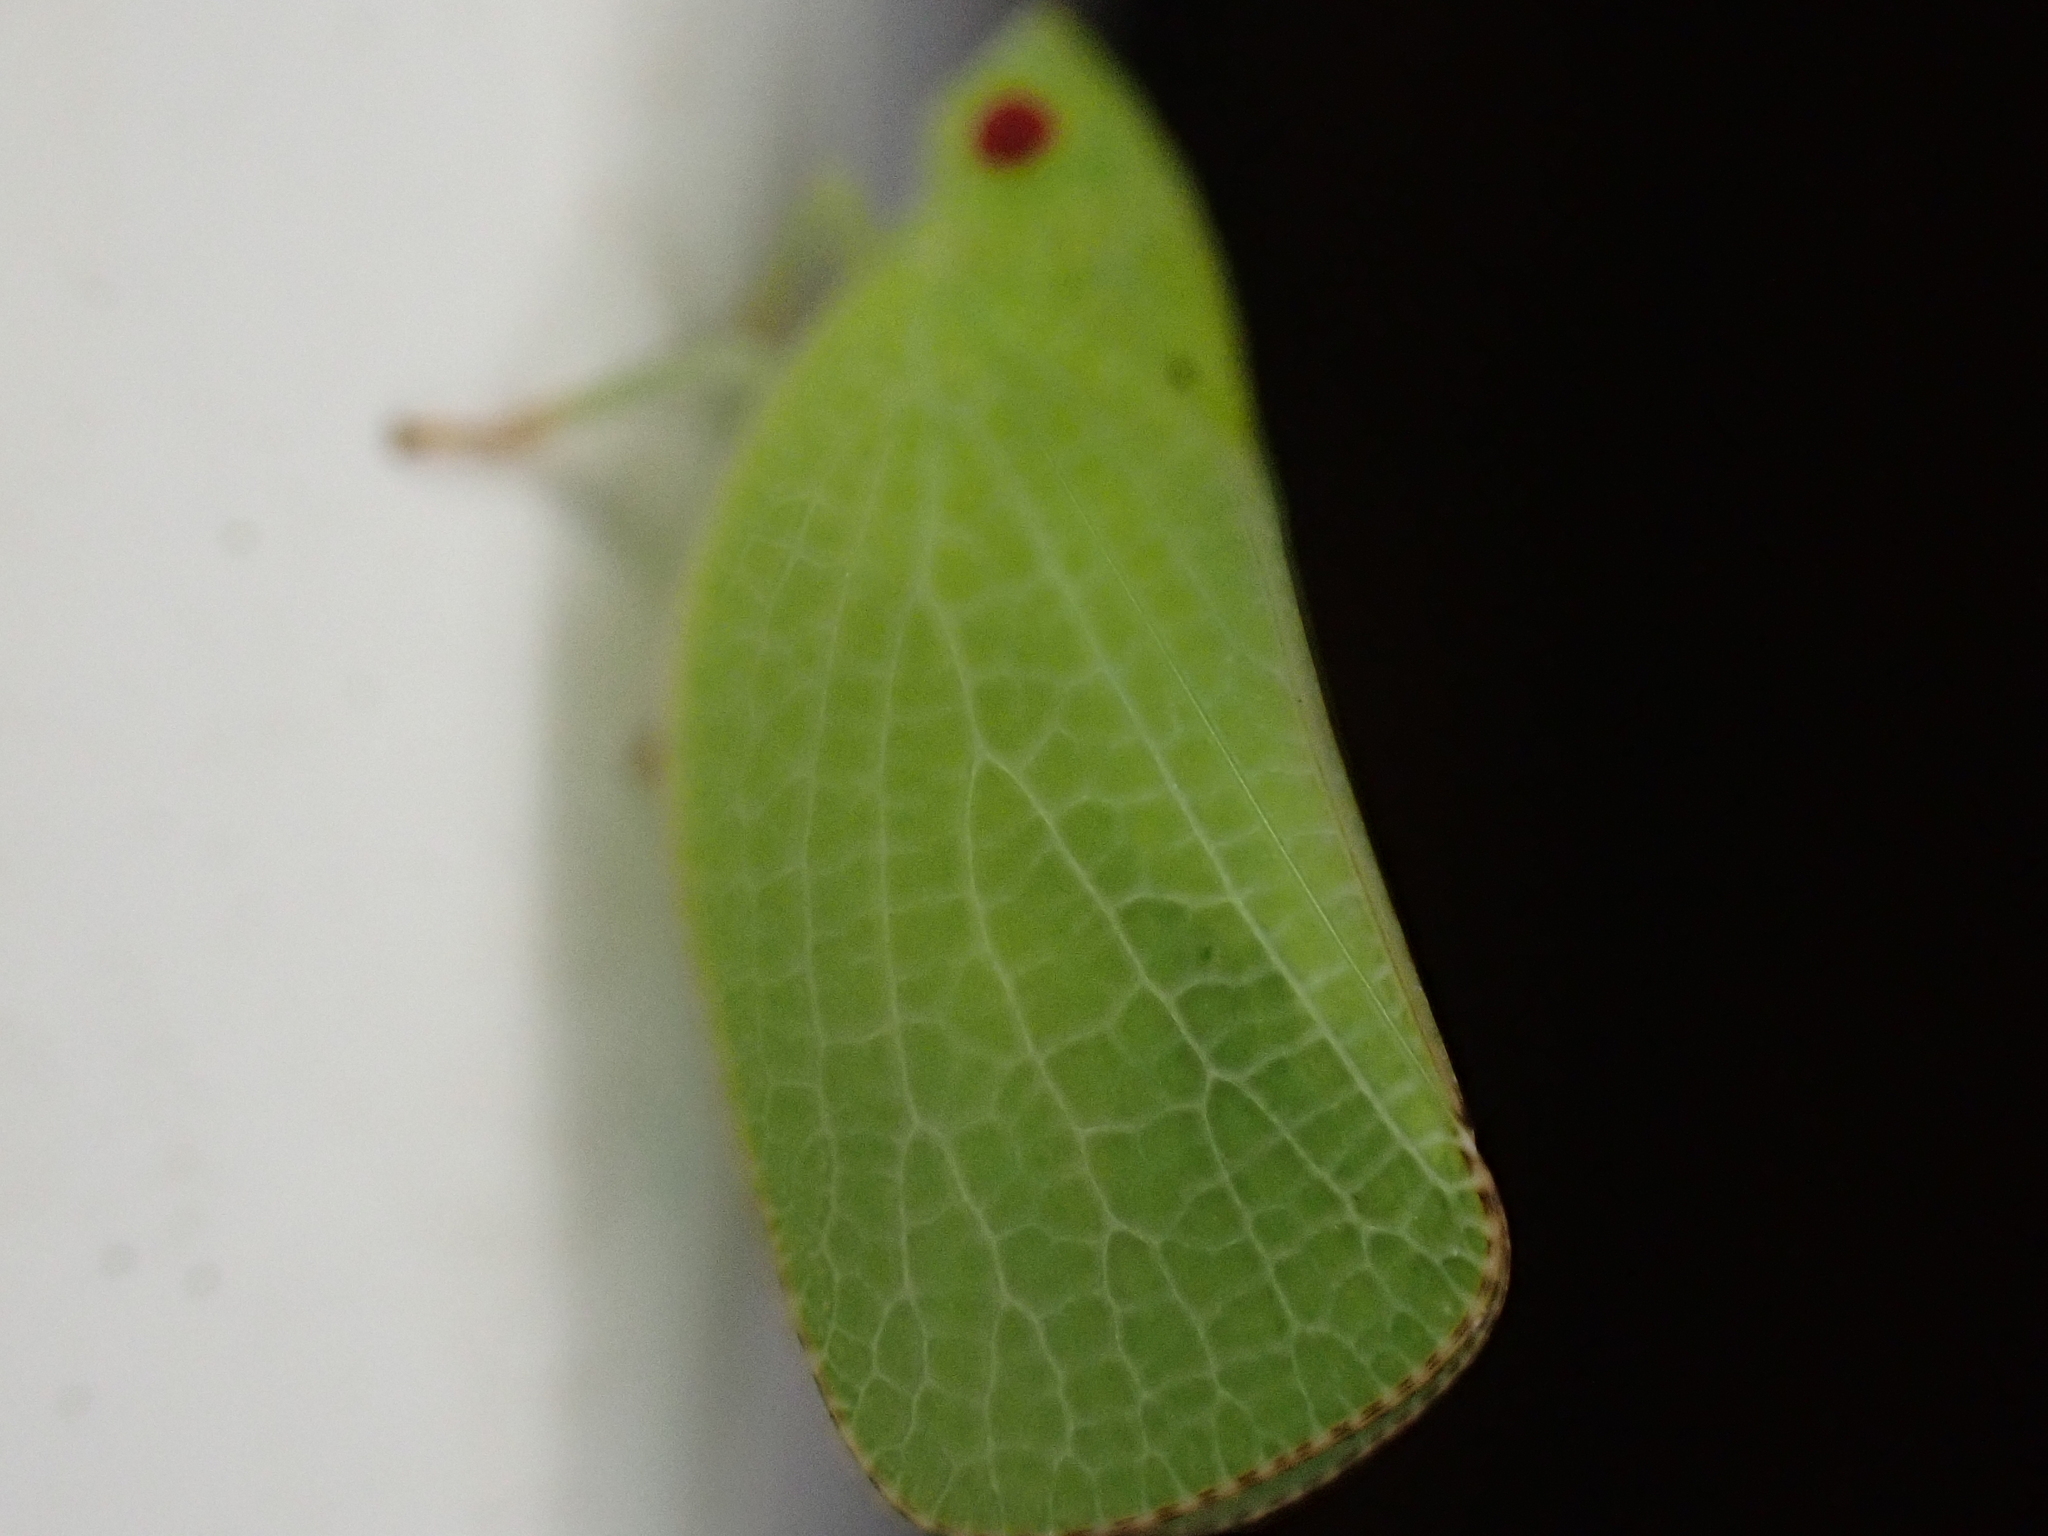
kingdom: Animalia
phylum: Arthropoda
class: Insecta
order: Hemiptera
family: Acanaloniidae
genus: Acanalonia
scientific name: Acanalonia conica
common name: Green cone-headed planthopper
